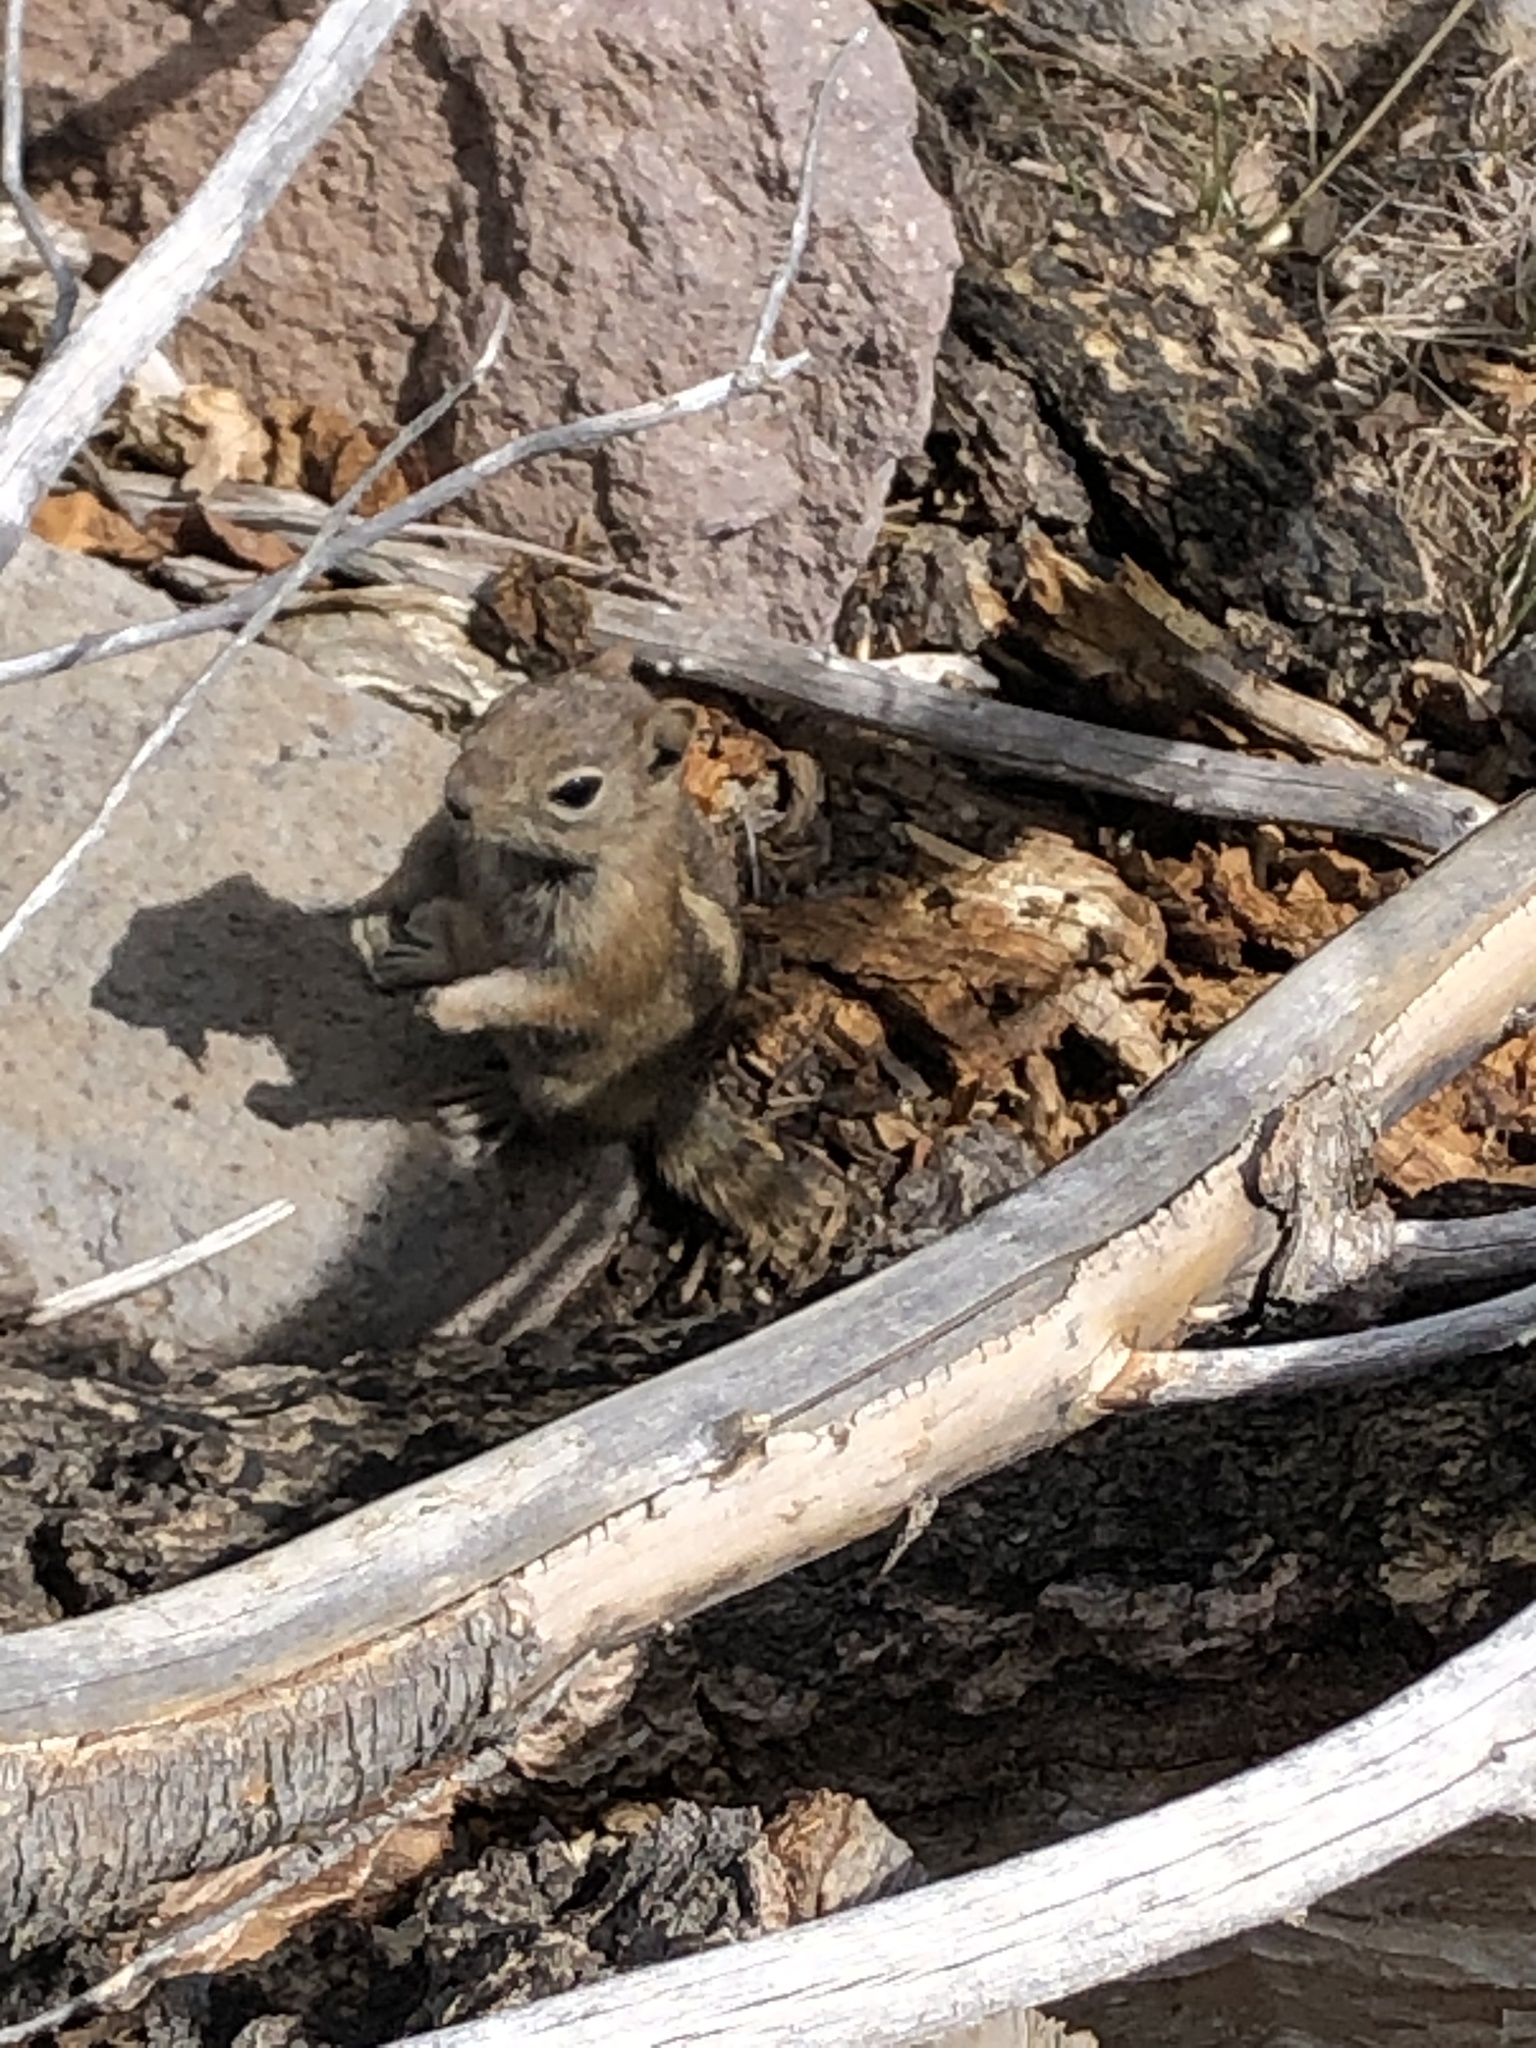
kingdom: Animalia
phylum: Chordata
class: Mammalia
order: Rodentia
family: Sciuridae
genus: Callospermophilus
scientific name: Callospermophilus lateralis
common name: Golden-mantled ground squirrel
